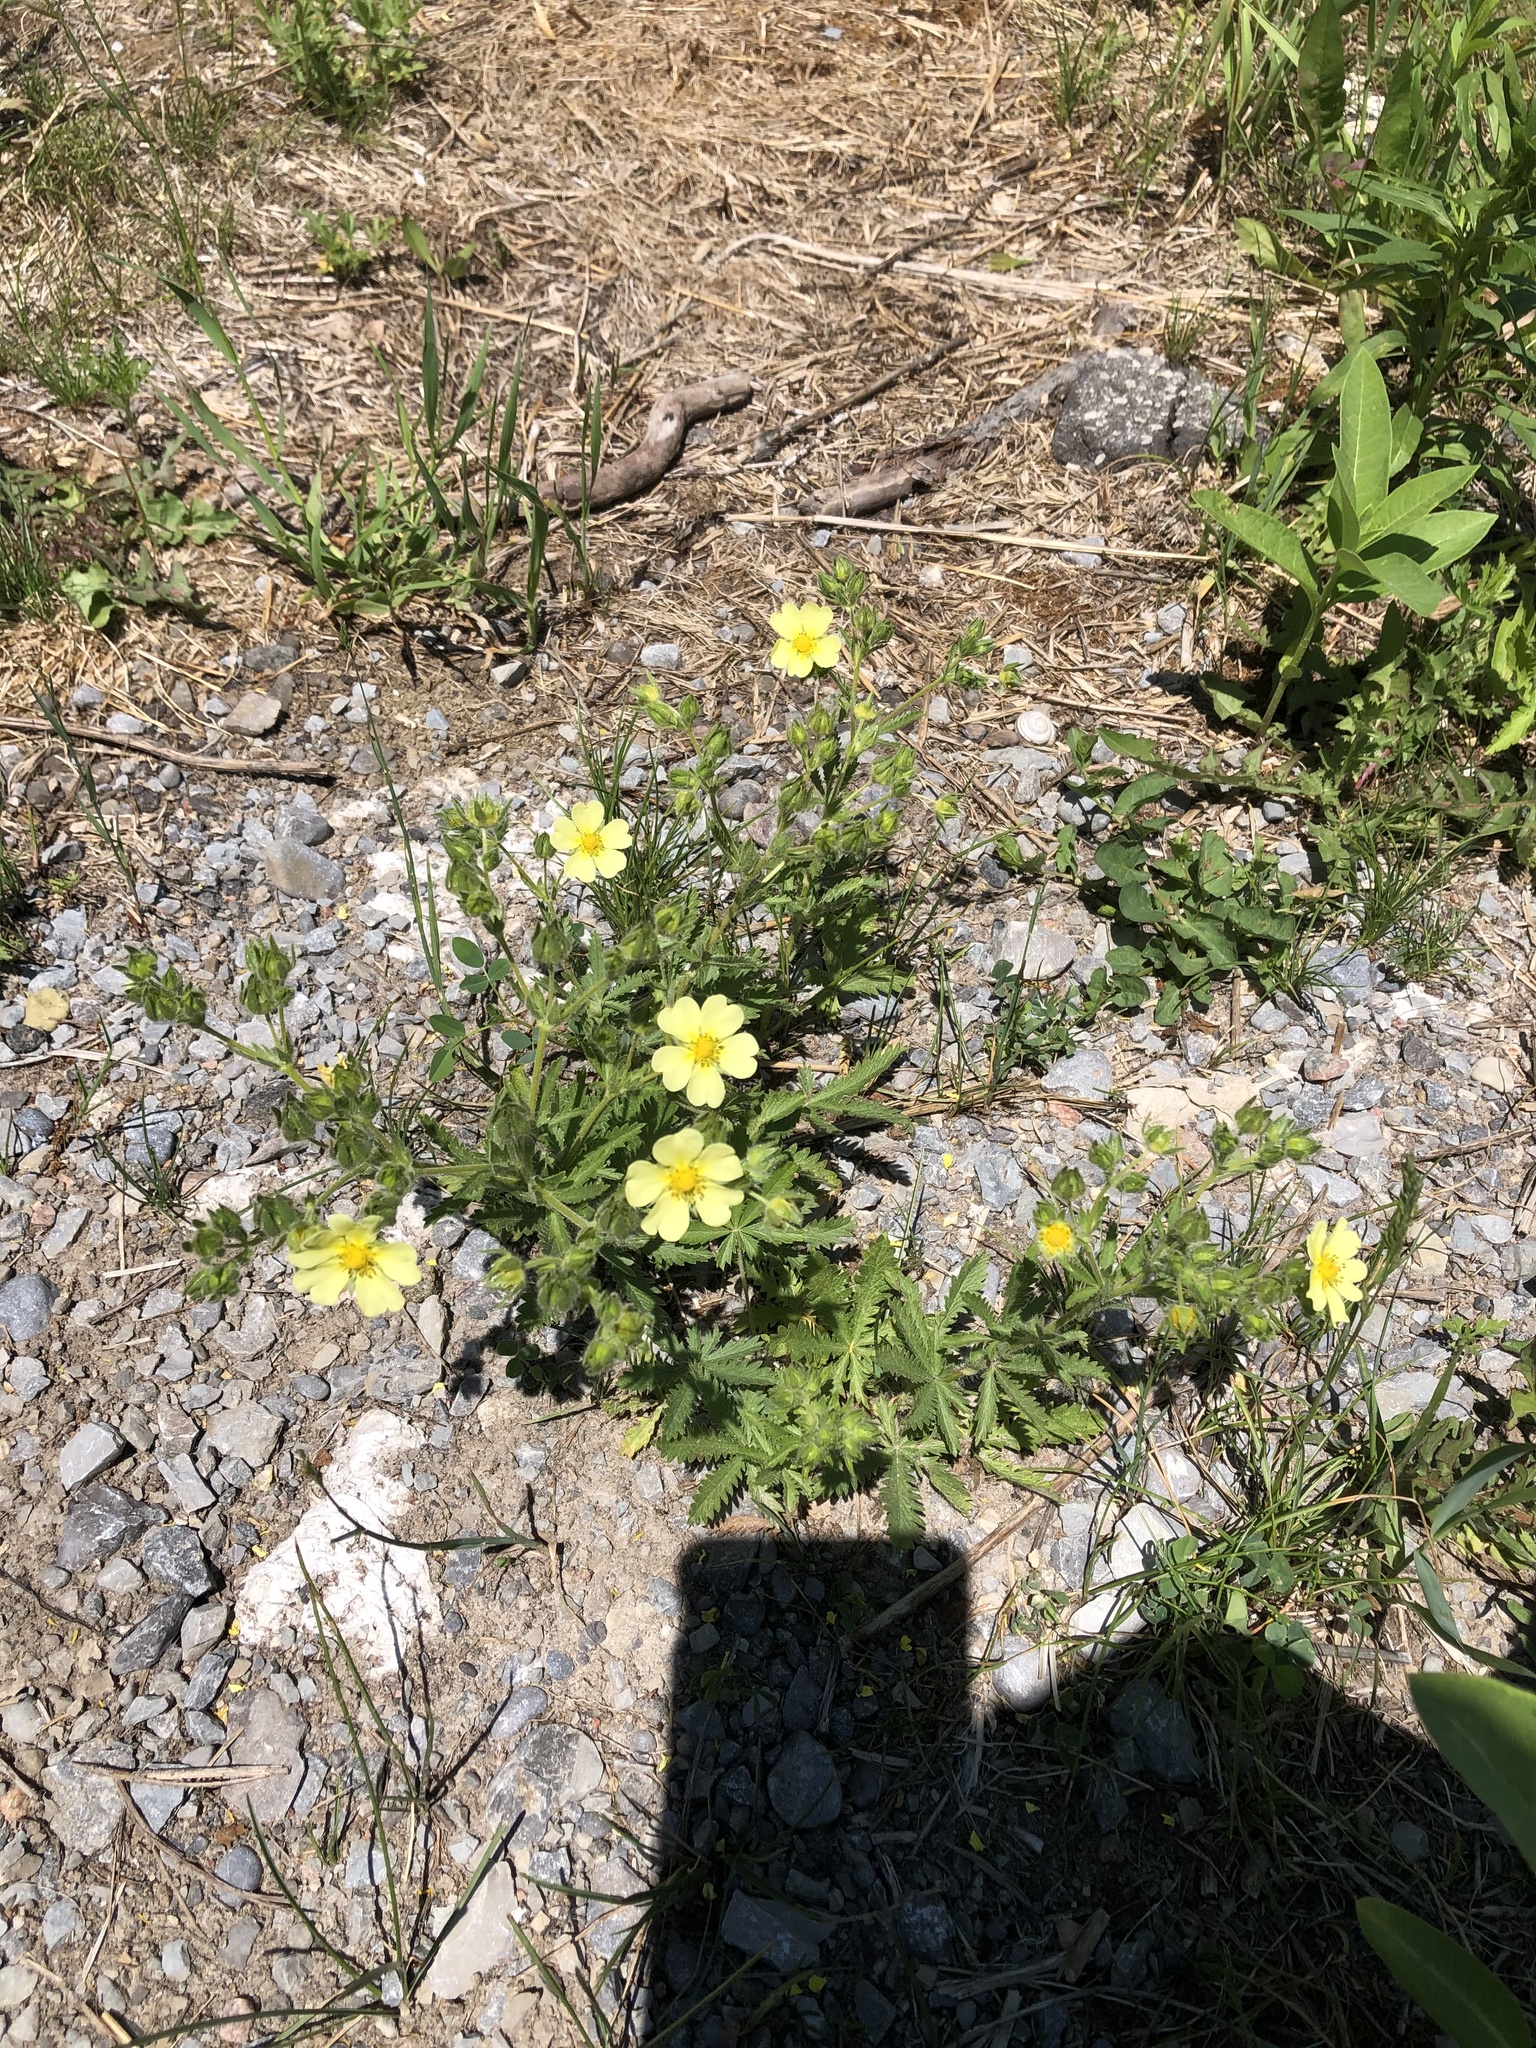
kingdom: Plantae
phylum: Tracheophyta
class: Magnoliopsida
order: Rosales
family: Rosaceae
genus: Potentilla
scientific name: Potentilla recta
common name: Sulphur cinquefoil
